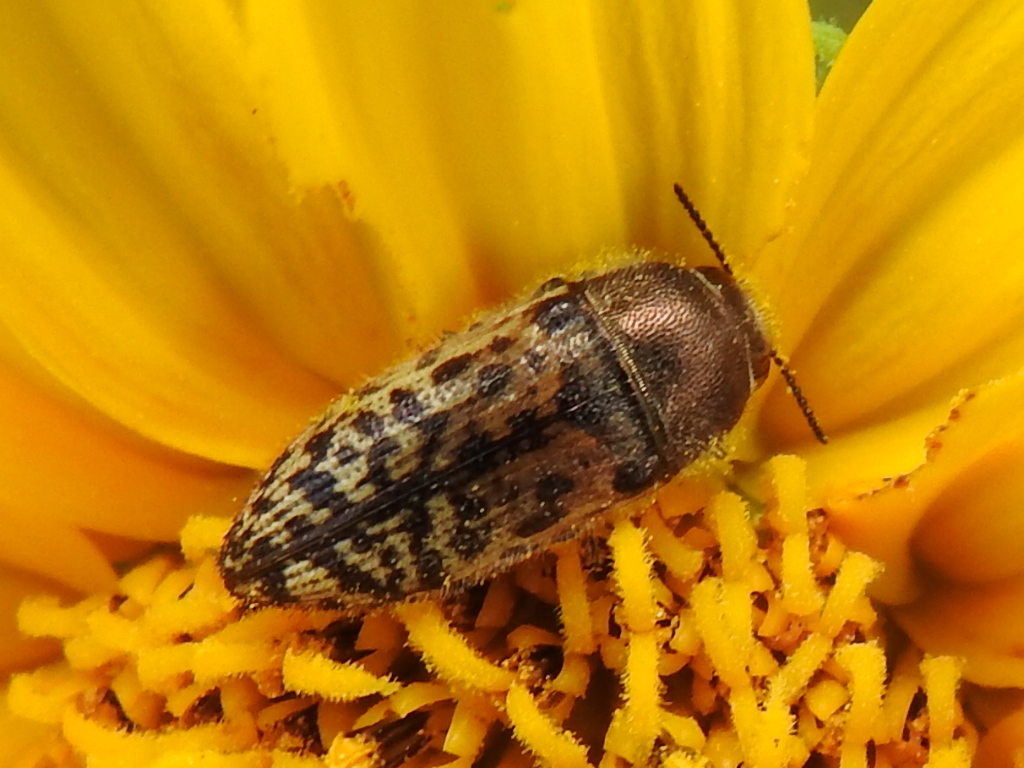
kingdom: Animalia
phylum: Arthropoda
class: Insecta
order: Coleoptera
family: Buprestidae
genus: Acmaeodera
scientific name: Acmaeodera mixta
